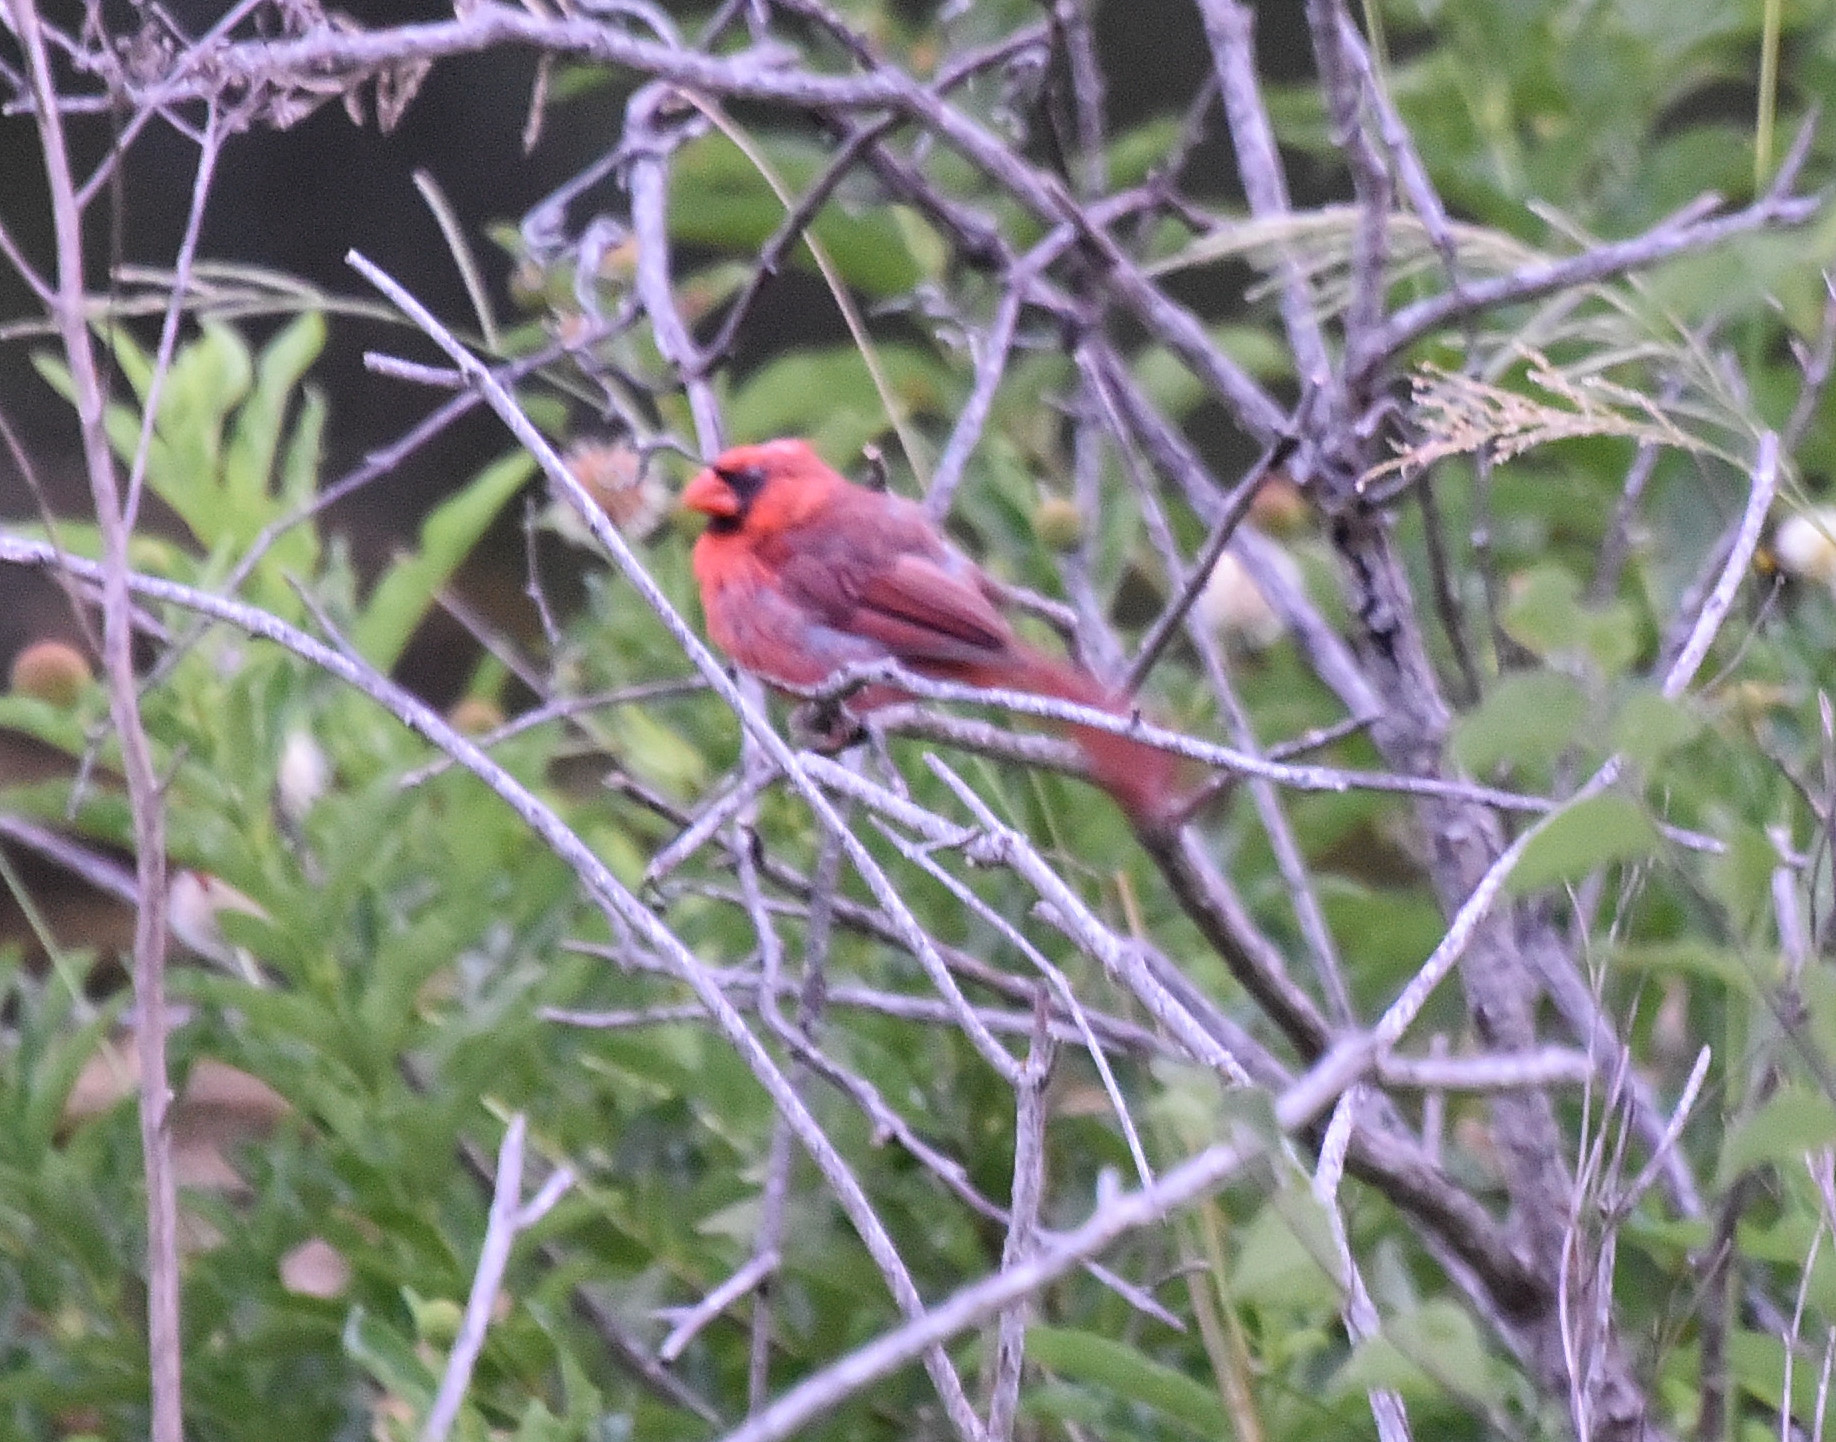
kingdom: Animalia
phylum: Chordata
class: Aves
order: Passeriformes
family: Cardinalidae
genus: Cardinalis
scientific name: Cardinalis cardinalis
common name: Northern cardinal
